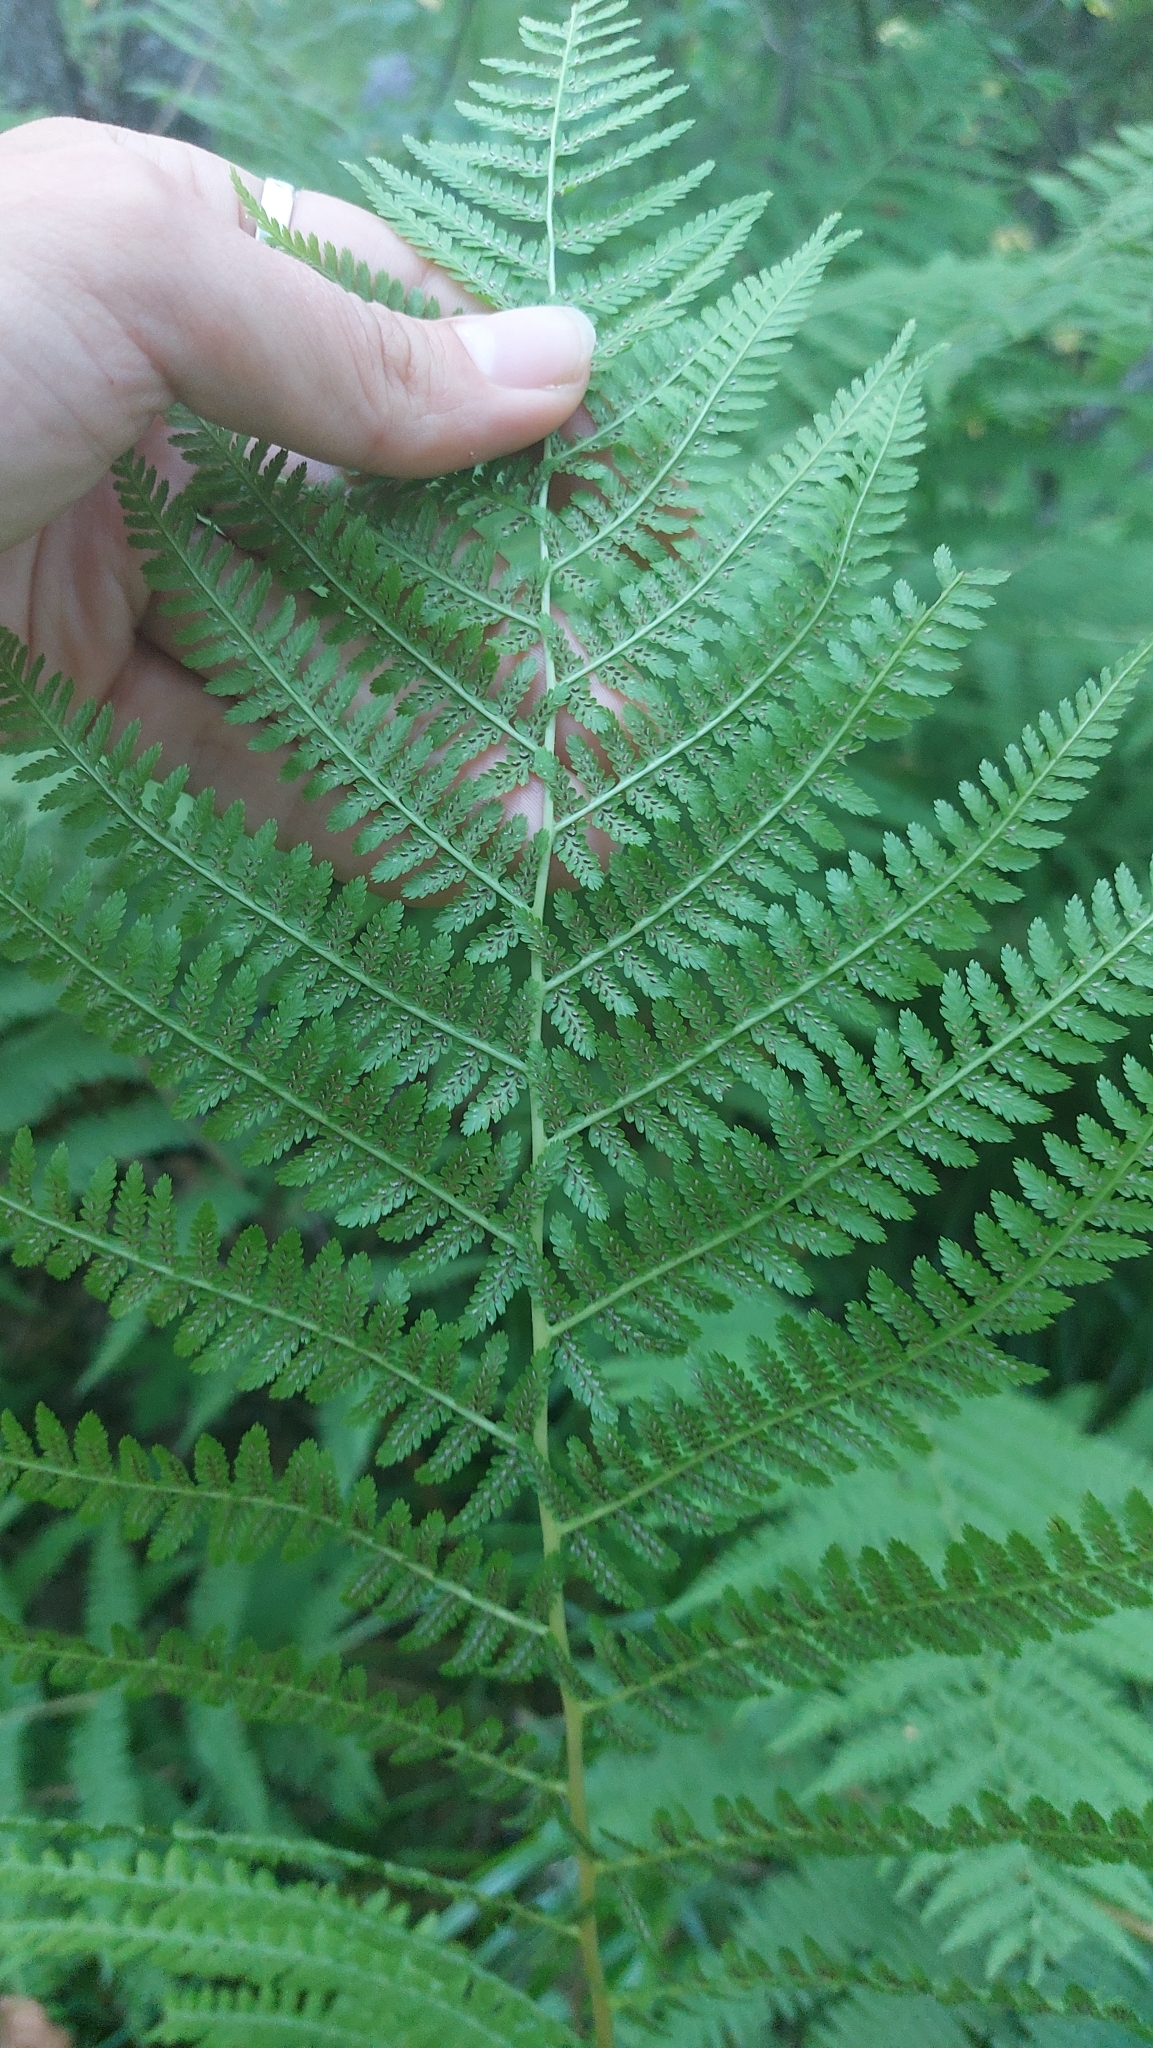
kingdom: Plantae
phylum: Tracheophyta
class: Polypodiopsida
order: Polypodiales
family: Athyriaceae
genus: Athyrium
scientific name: Athyrium filix-femina
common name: Lady fern
